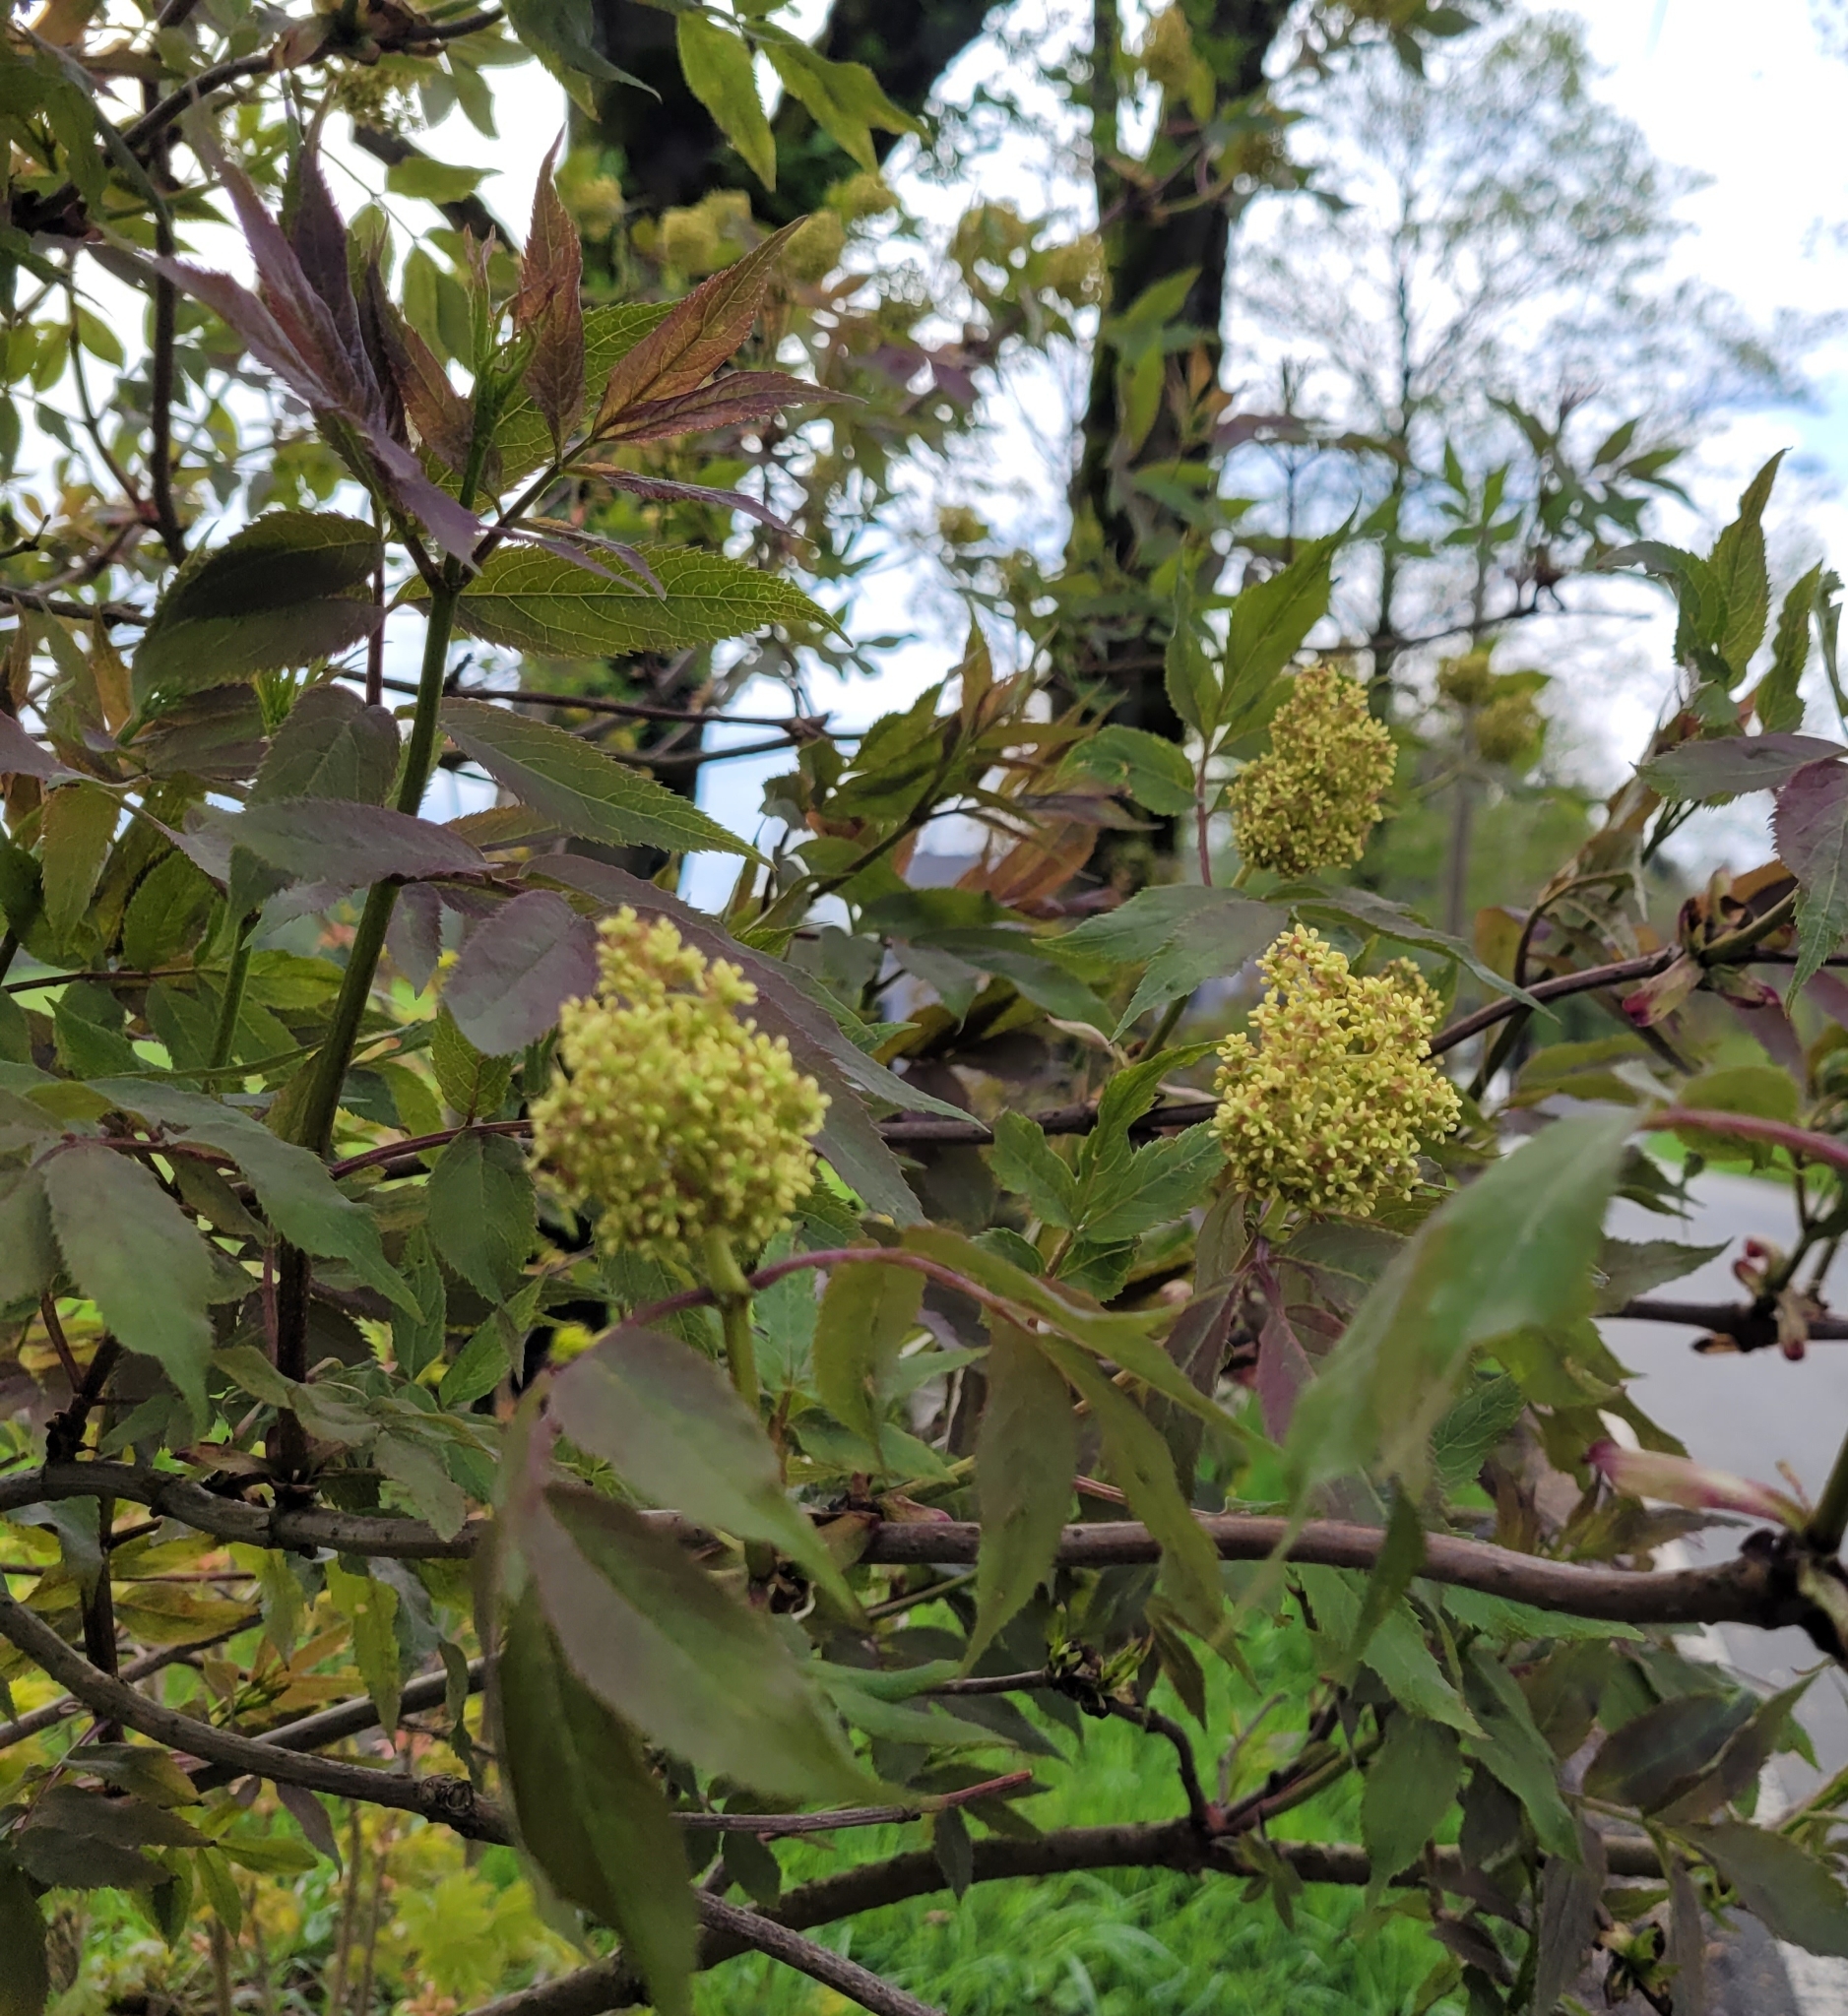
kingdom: Plantae
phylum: Tracheophyta
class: Magnoliopsida
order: Dipsacales
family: Viburnaceae
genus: Sambucus
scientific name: Sambucus racemosa
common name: Red-berried elder
